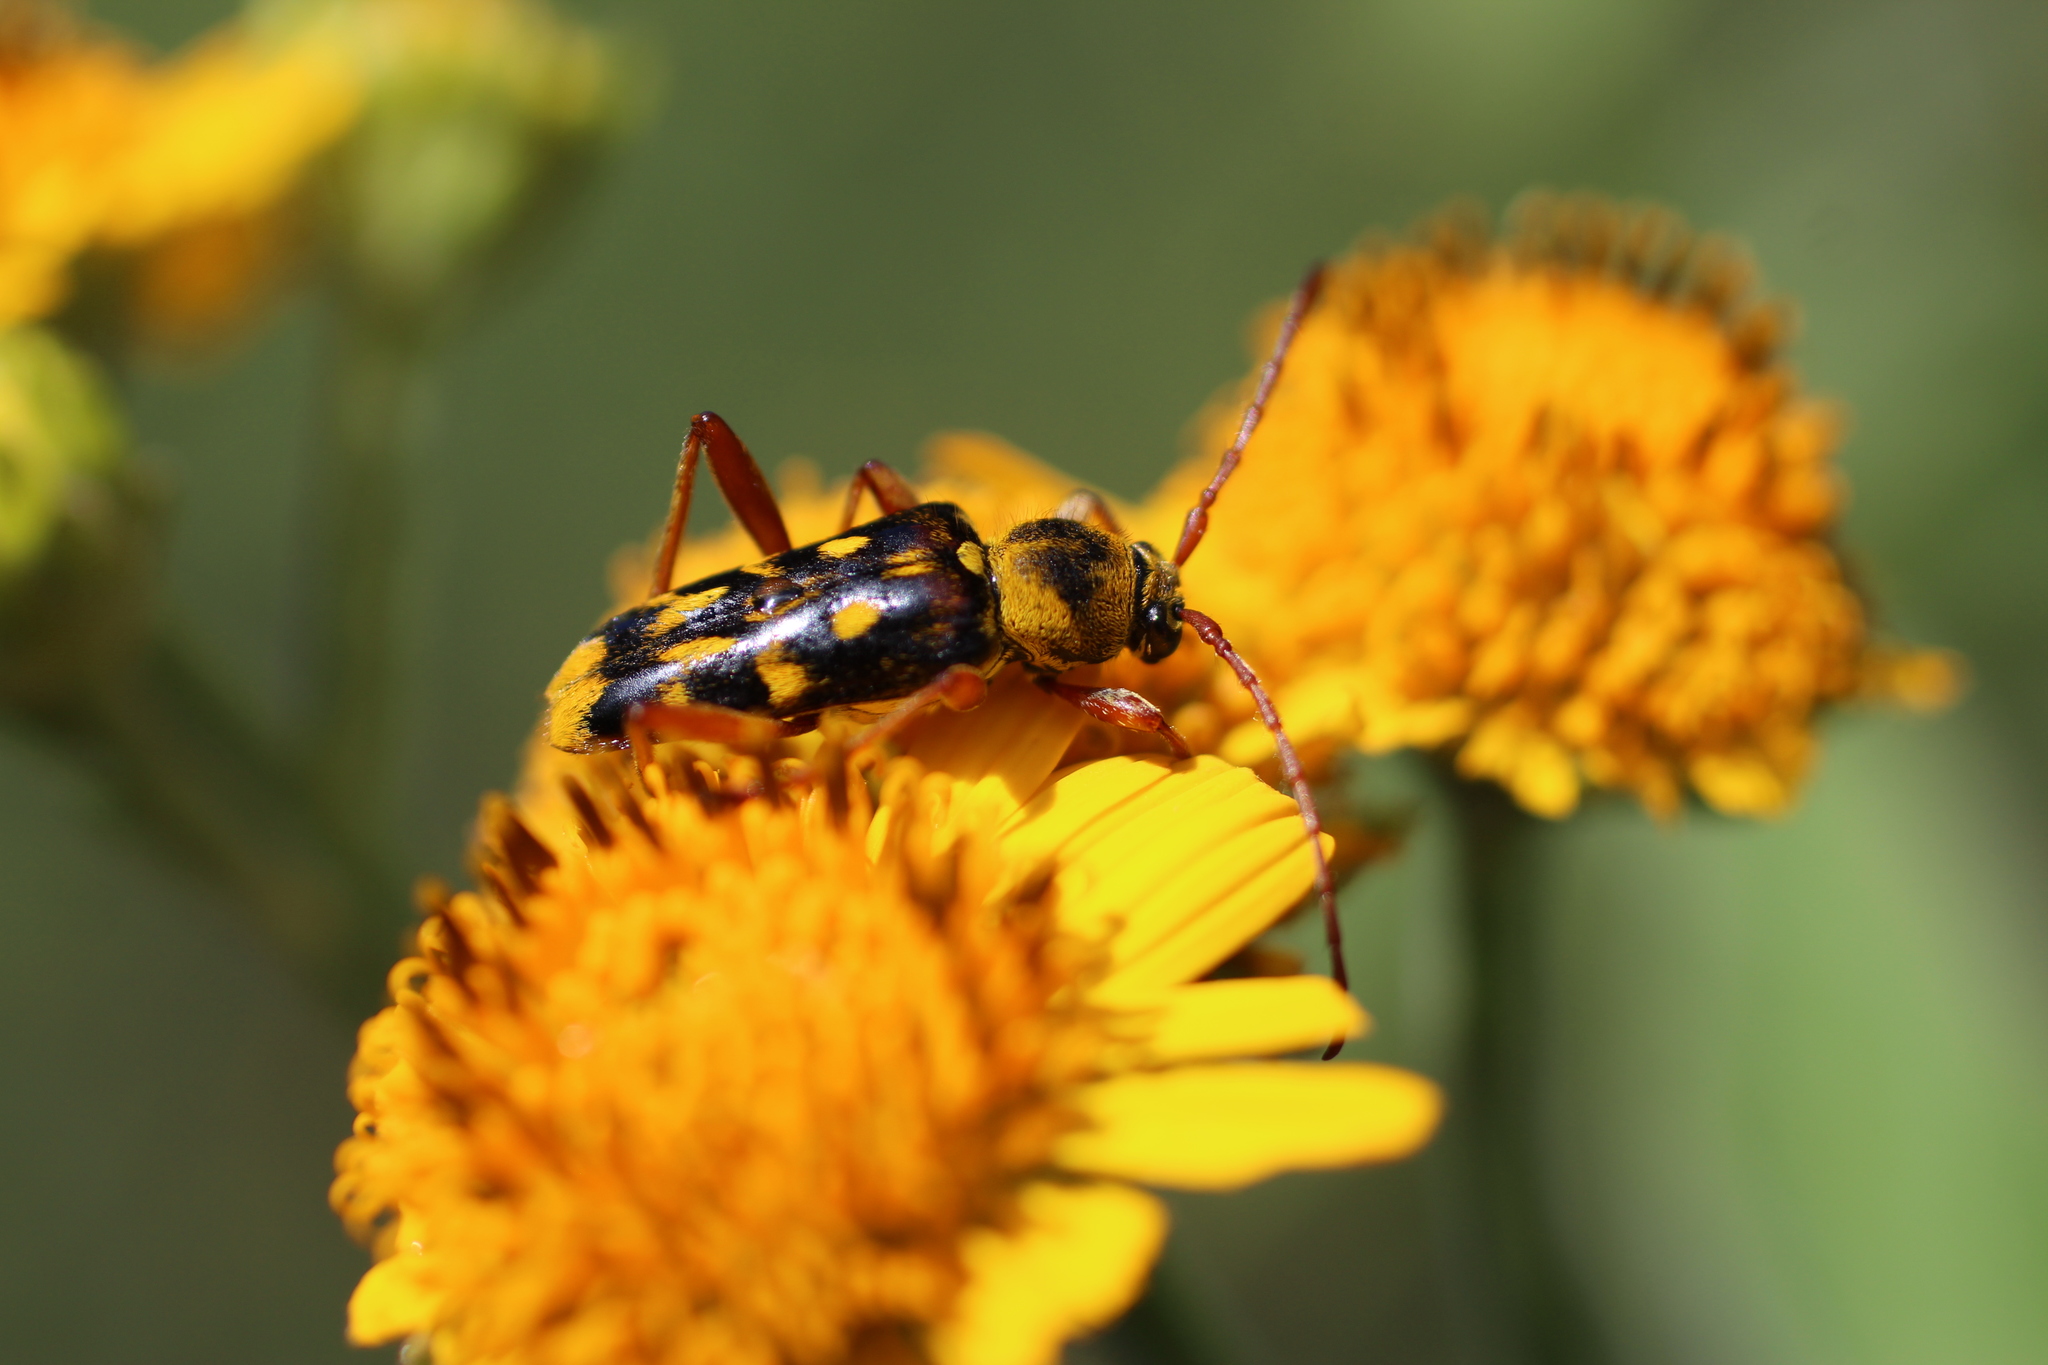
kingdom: Animalia
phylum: Arthropoda
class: Insecta
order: Coleoptera
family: Cerambycidae
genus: Ochraethes
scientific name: Ochraethes sommeri
